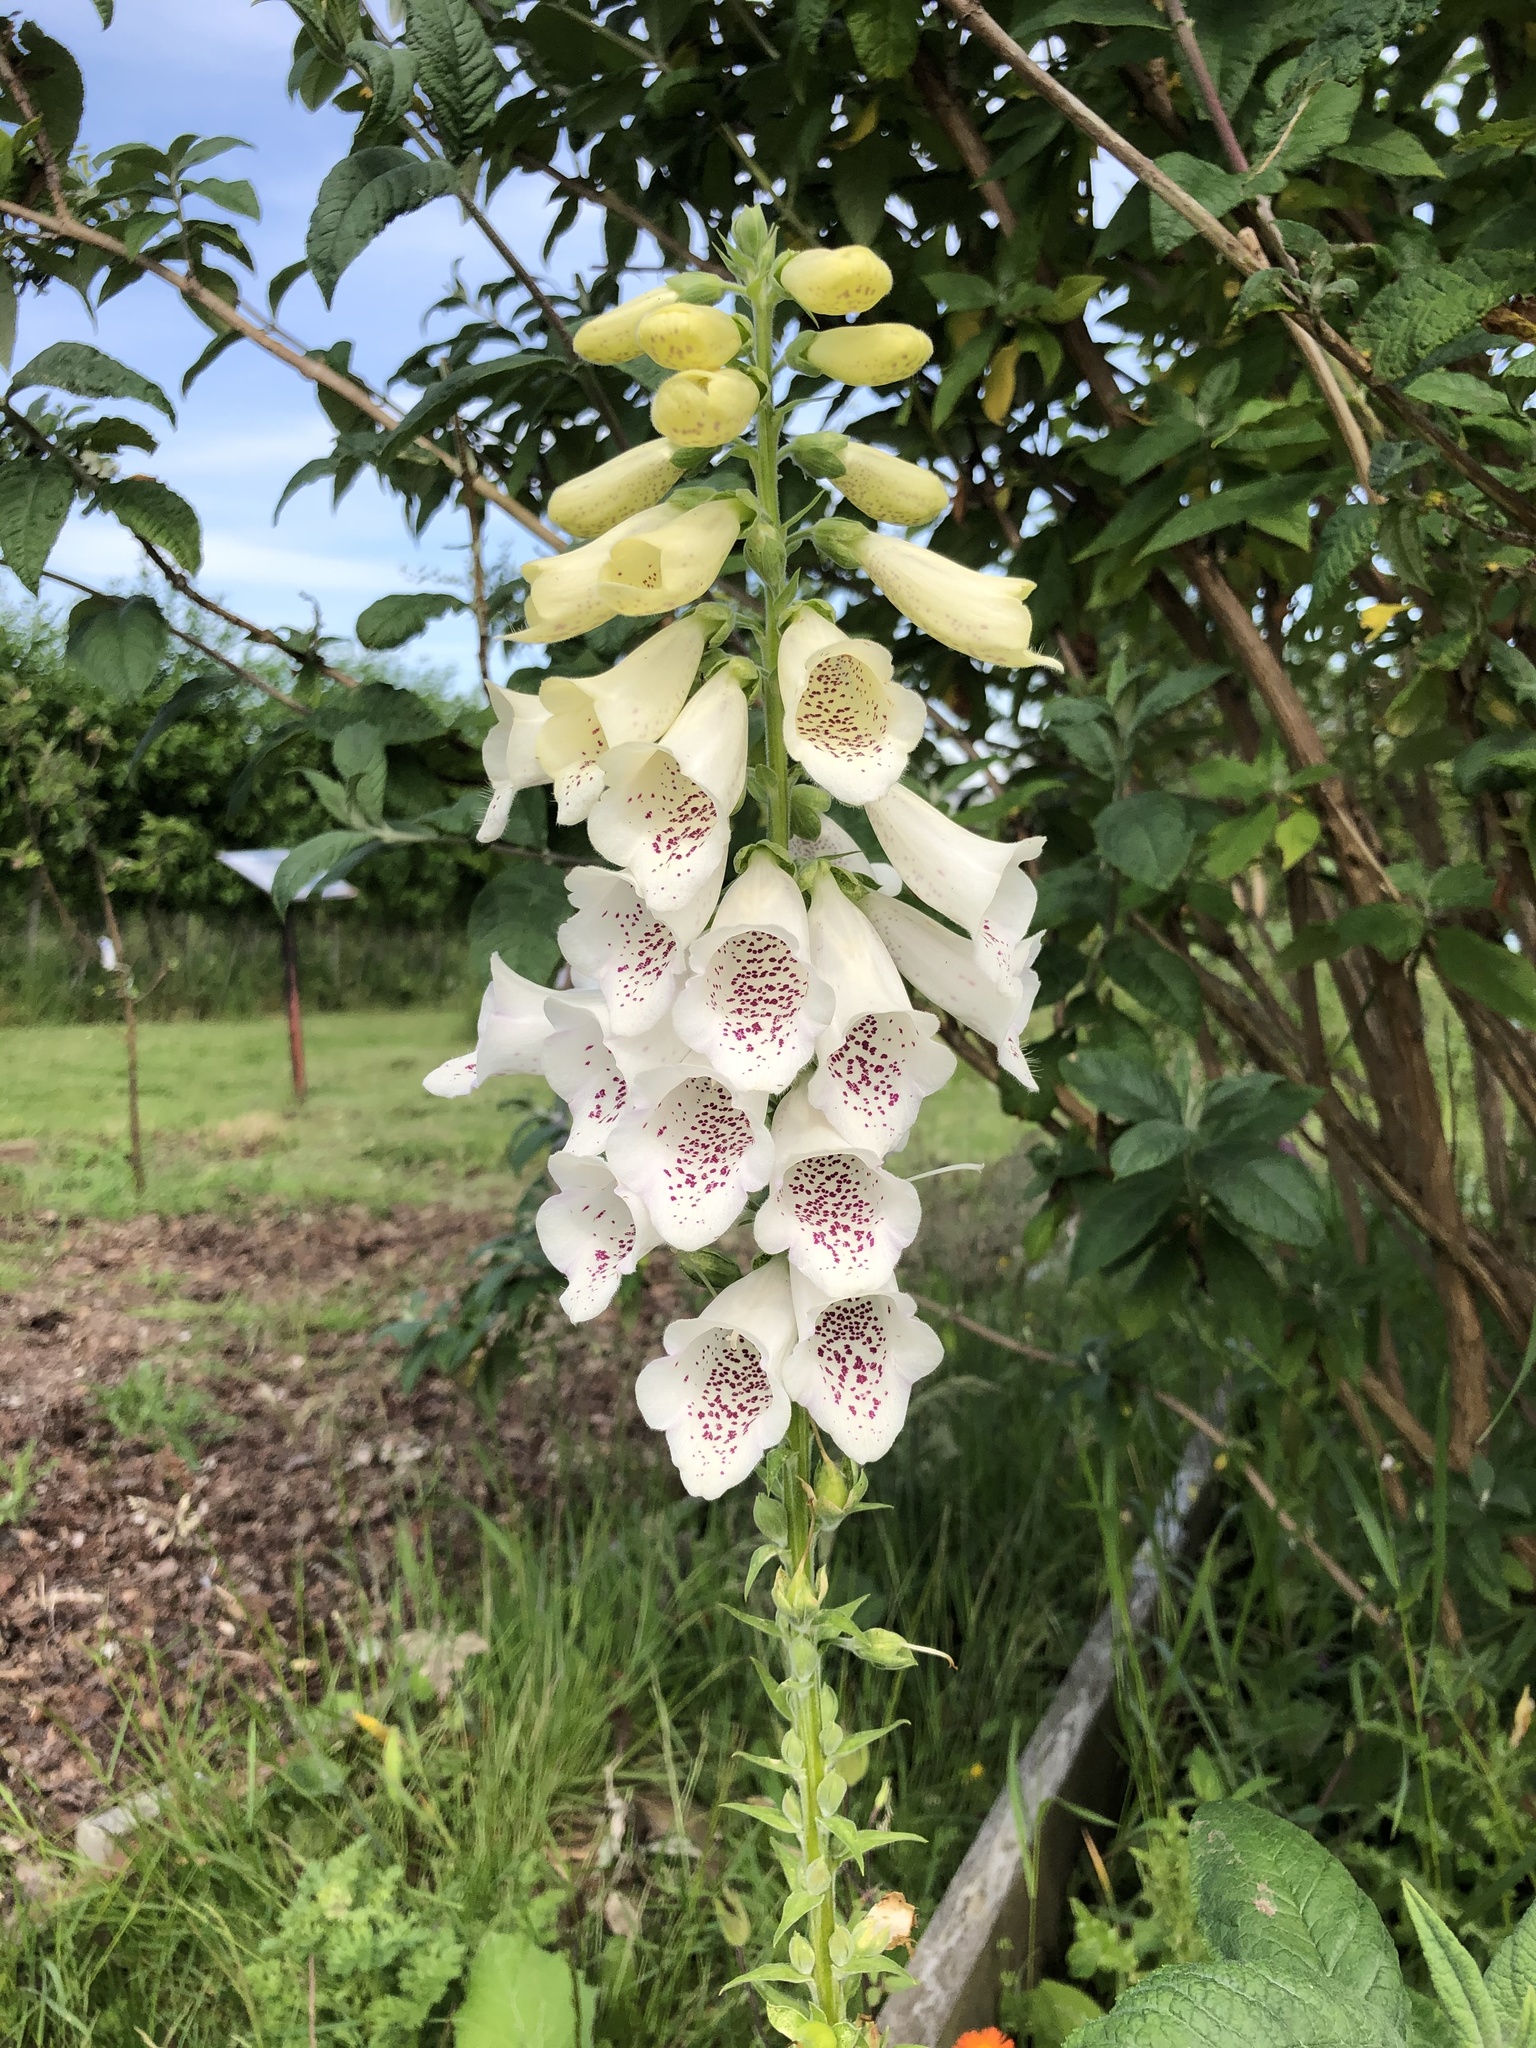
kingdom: Plantae
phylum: Tracheophyta
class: Magnoliopsida
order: Lamiales
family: Plantaginaceae
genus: Digitalis
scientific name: Digitalis purpurea
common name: Foxglove
